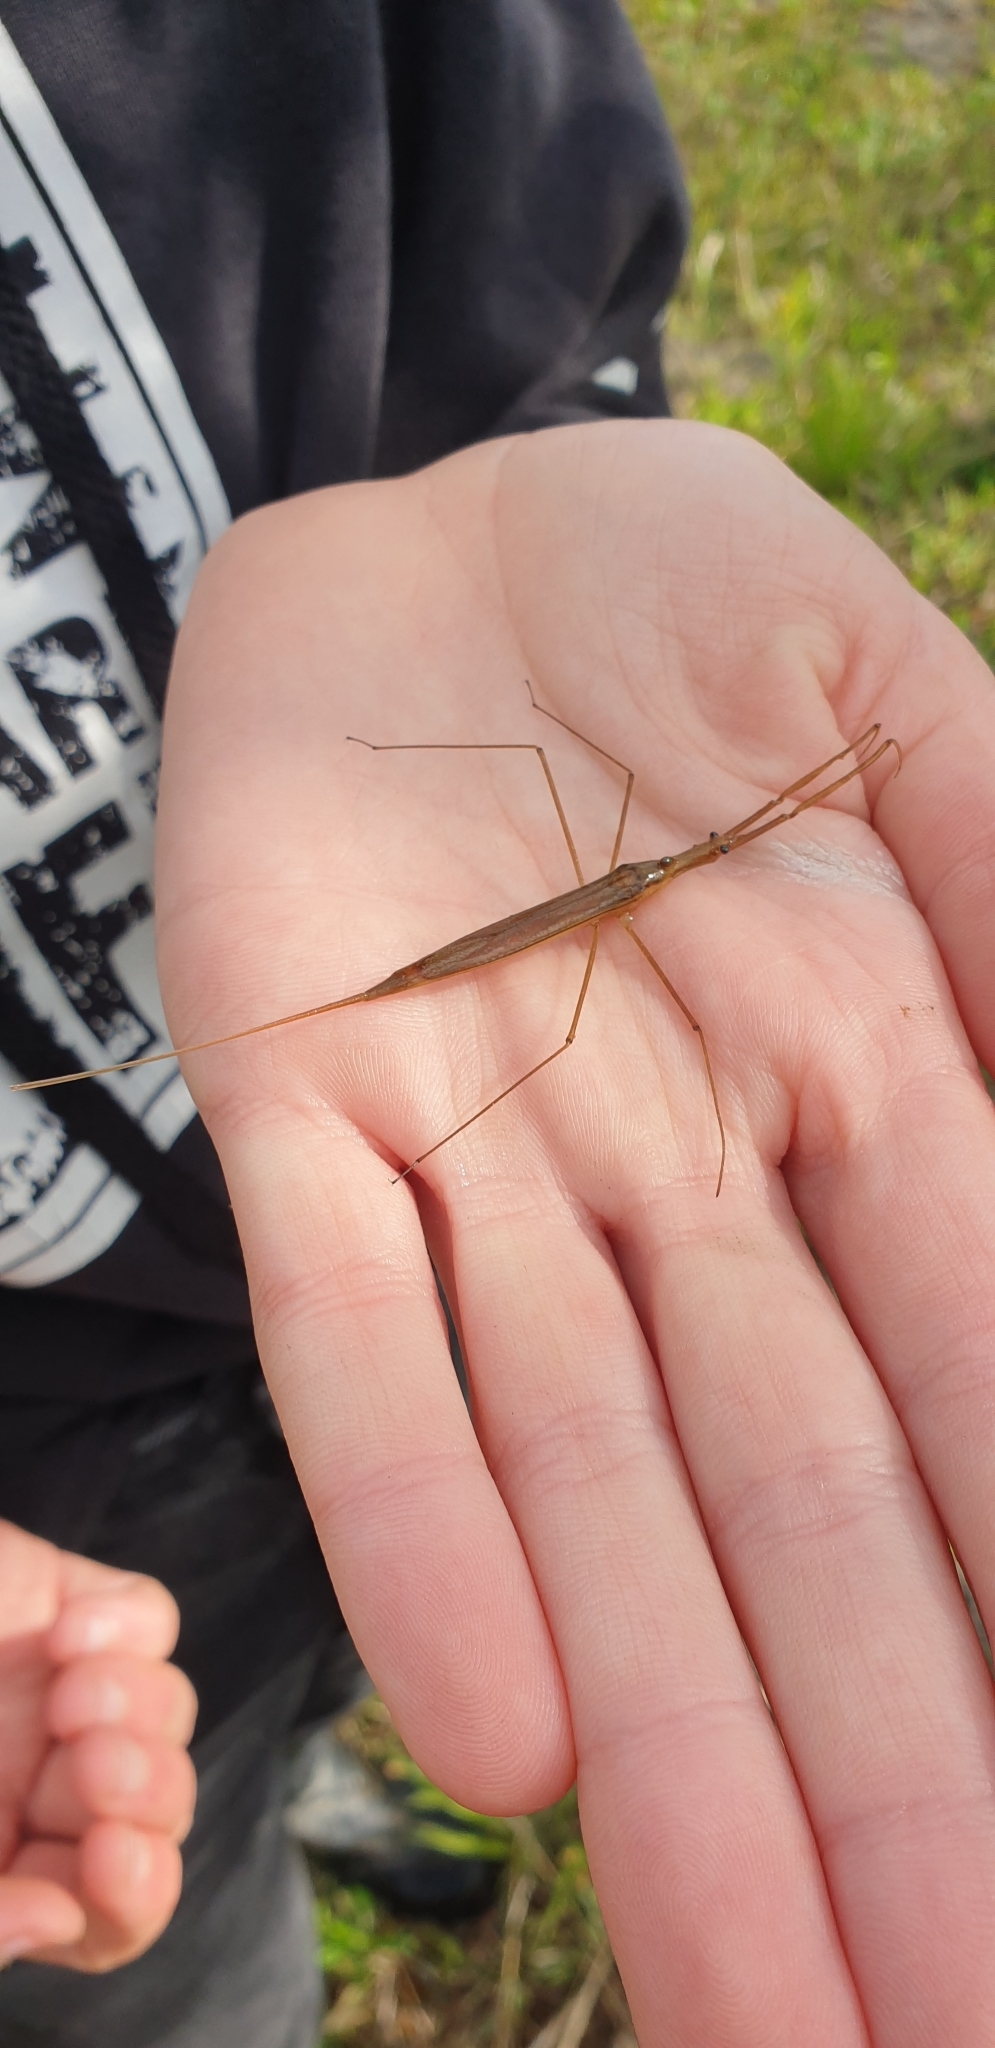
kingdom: Animalia
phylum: Arthropoda
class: Insecta
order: Hemiptera
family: Nepidae
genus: Ranatra
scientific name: Ranatra linearis
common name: Water stick insect
